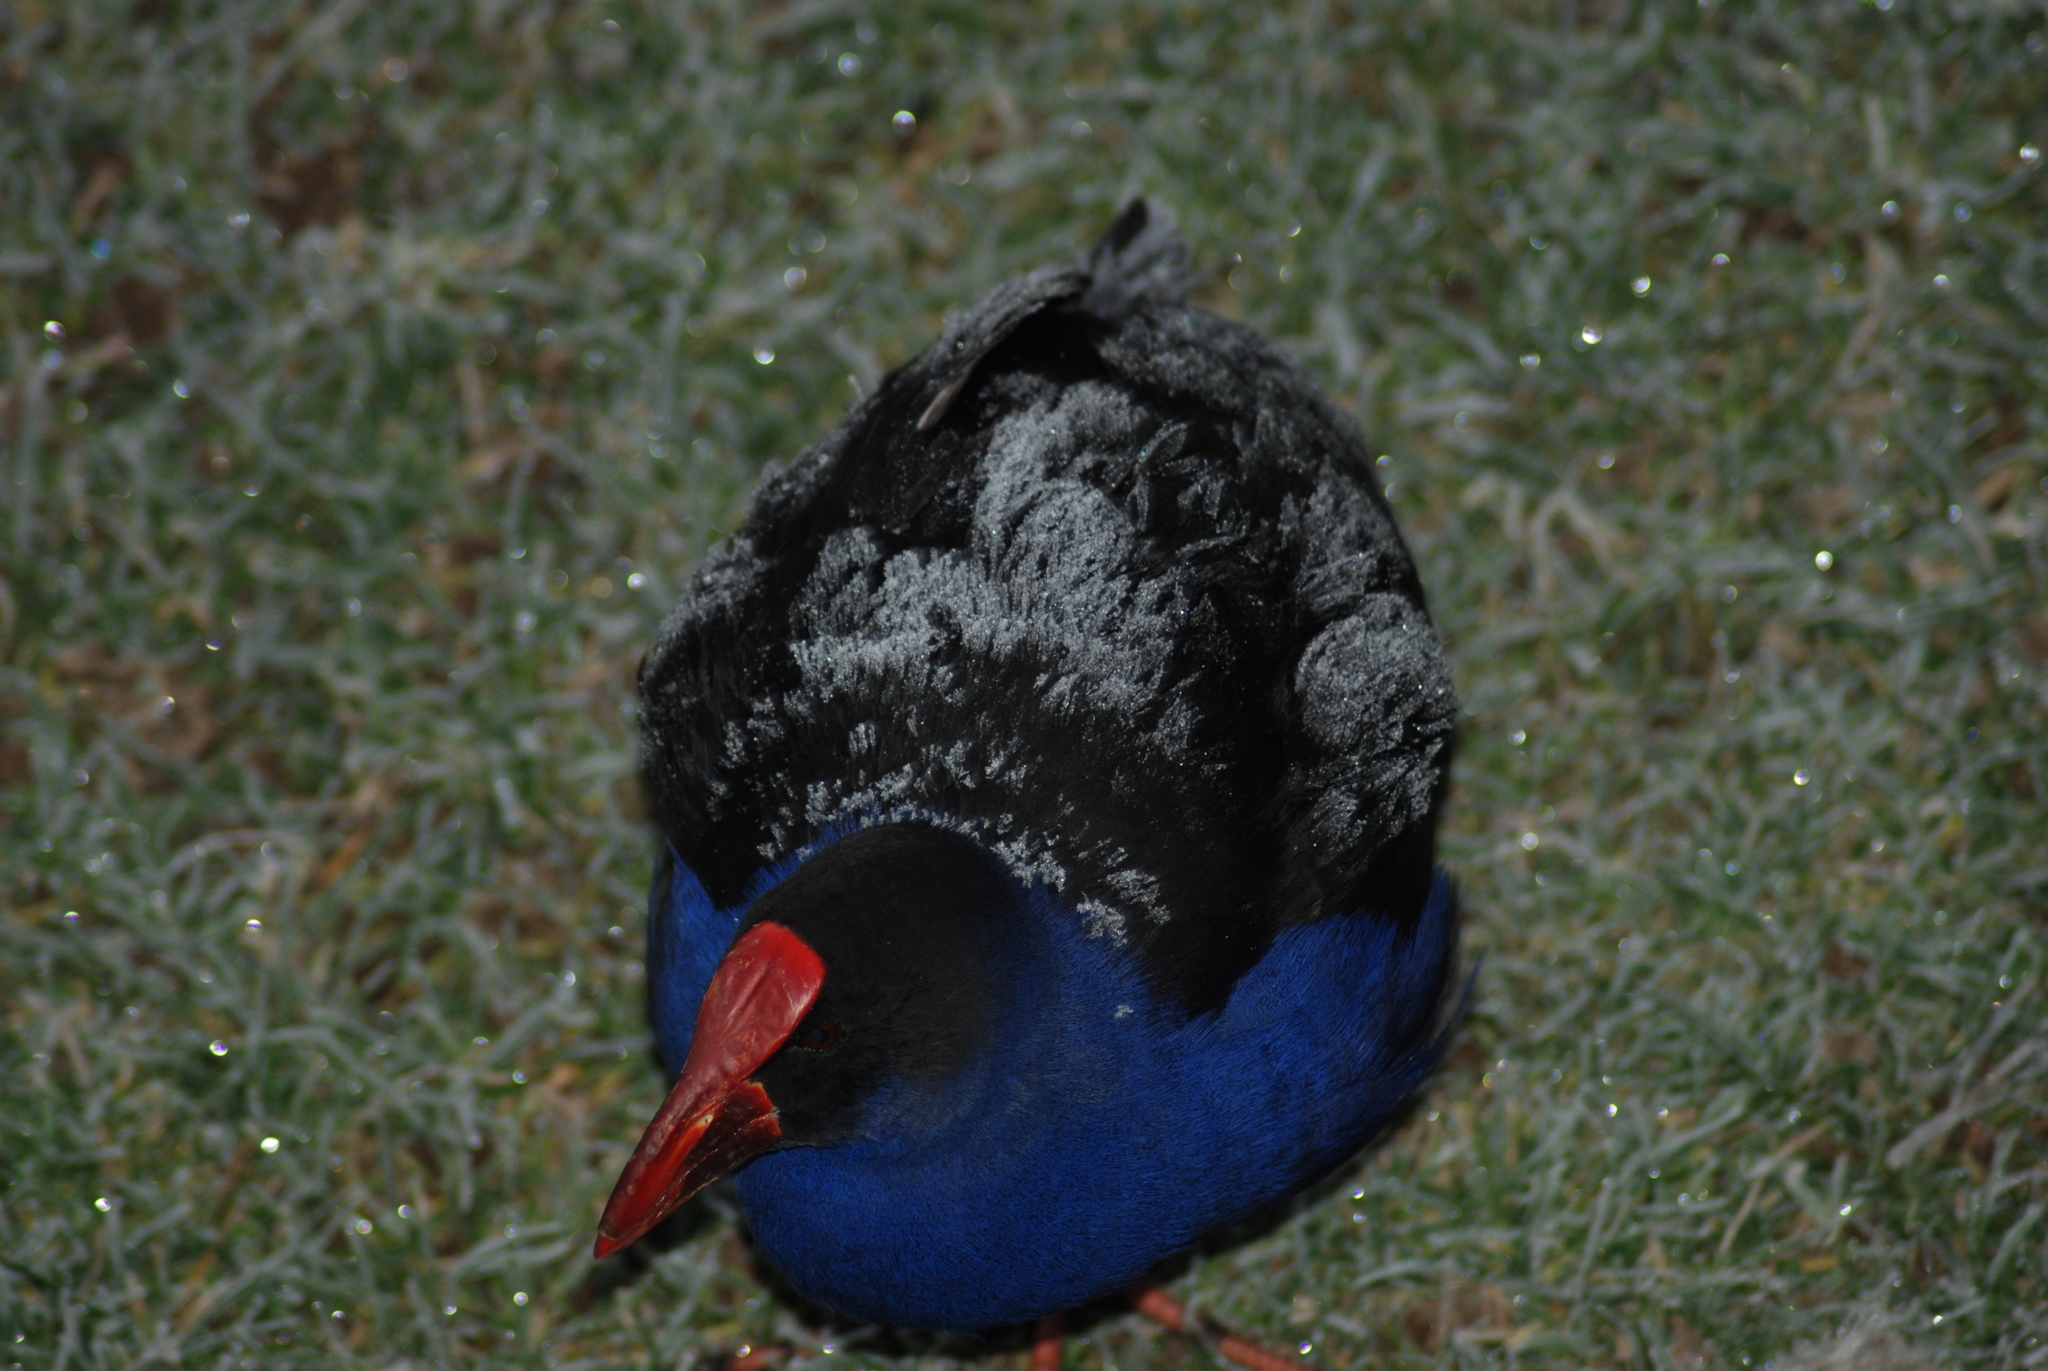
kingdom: Animalia
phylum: Chordata
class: Aves
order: Gruiformes
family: Rallidae
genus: Porphyrio
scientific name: Porphyrio melanotus
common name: Australasian swamphen
